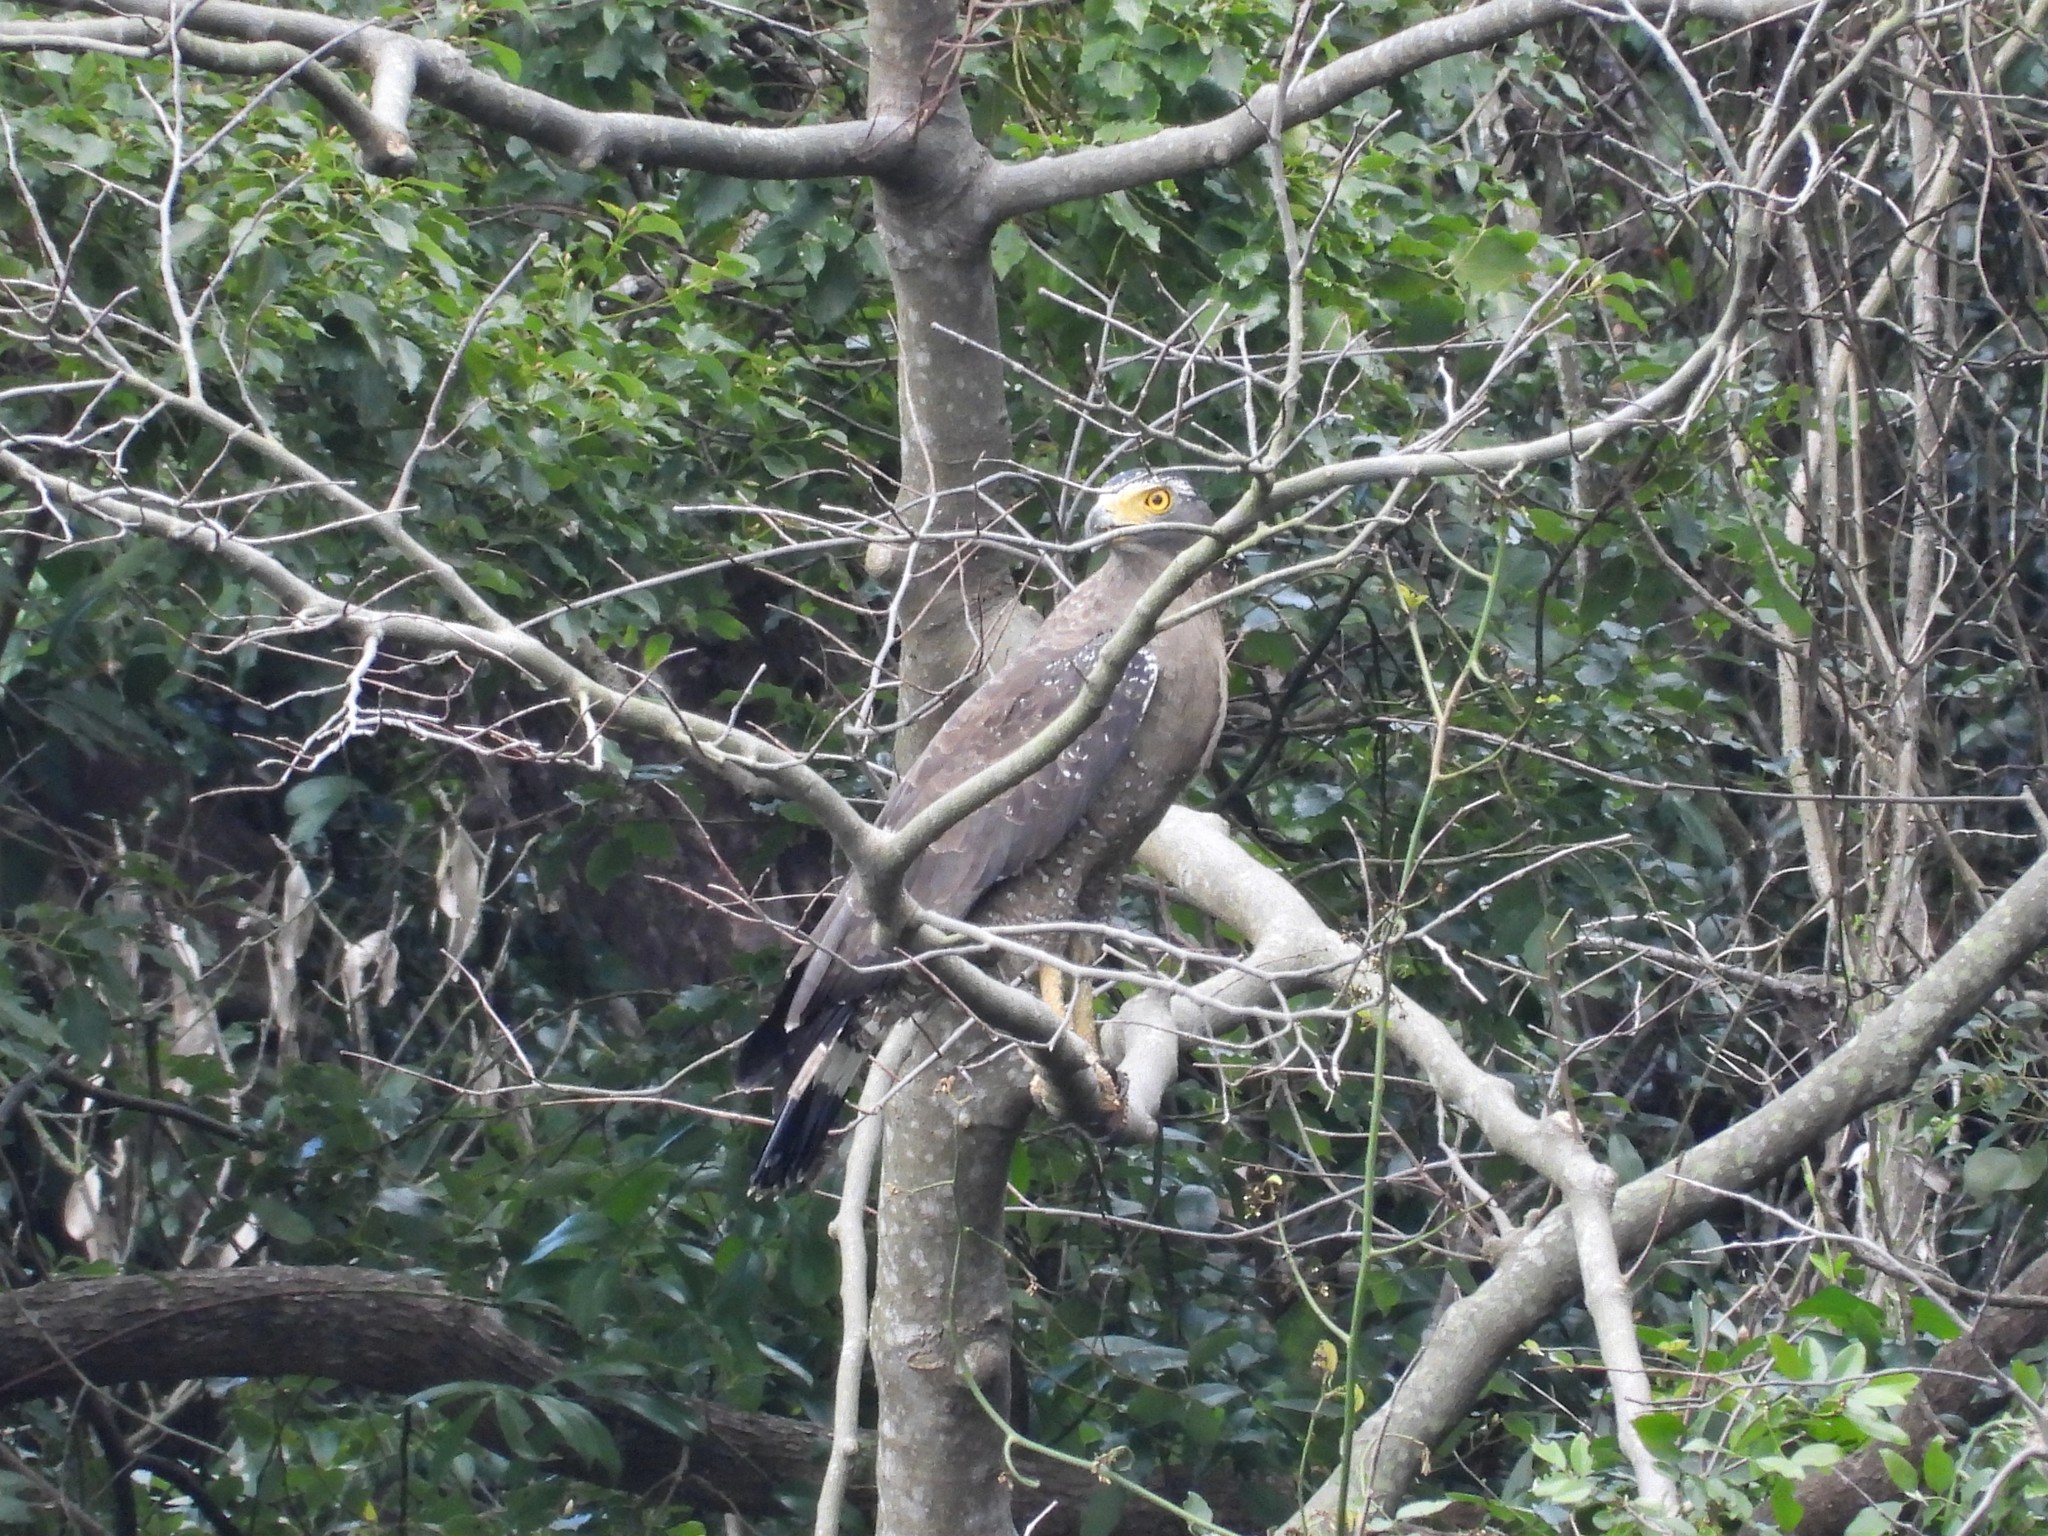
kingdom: Animalia
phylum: Chordata
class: Aves
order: Accipitriformes
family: Accipitridae
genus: Spilornis
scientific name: Spilornis cheela
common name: Crested serpent eagle
